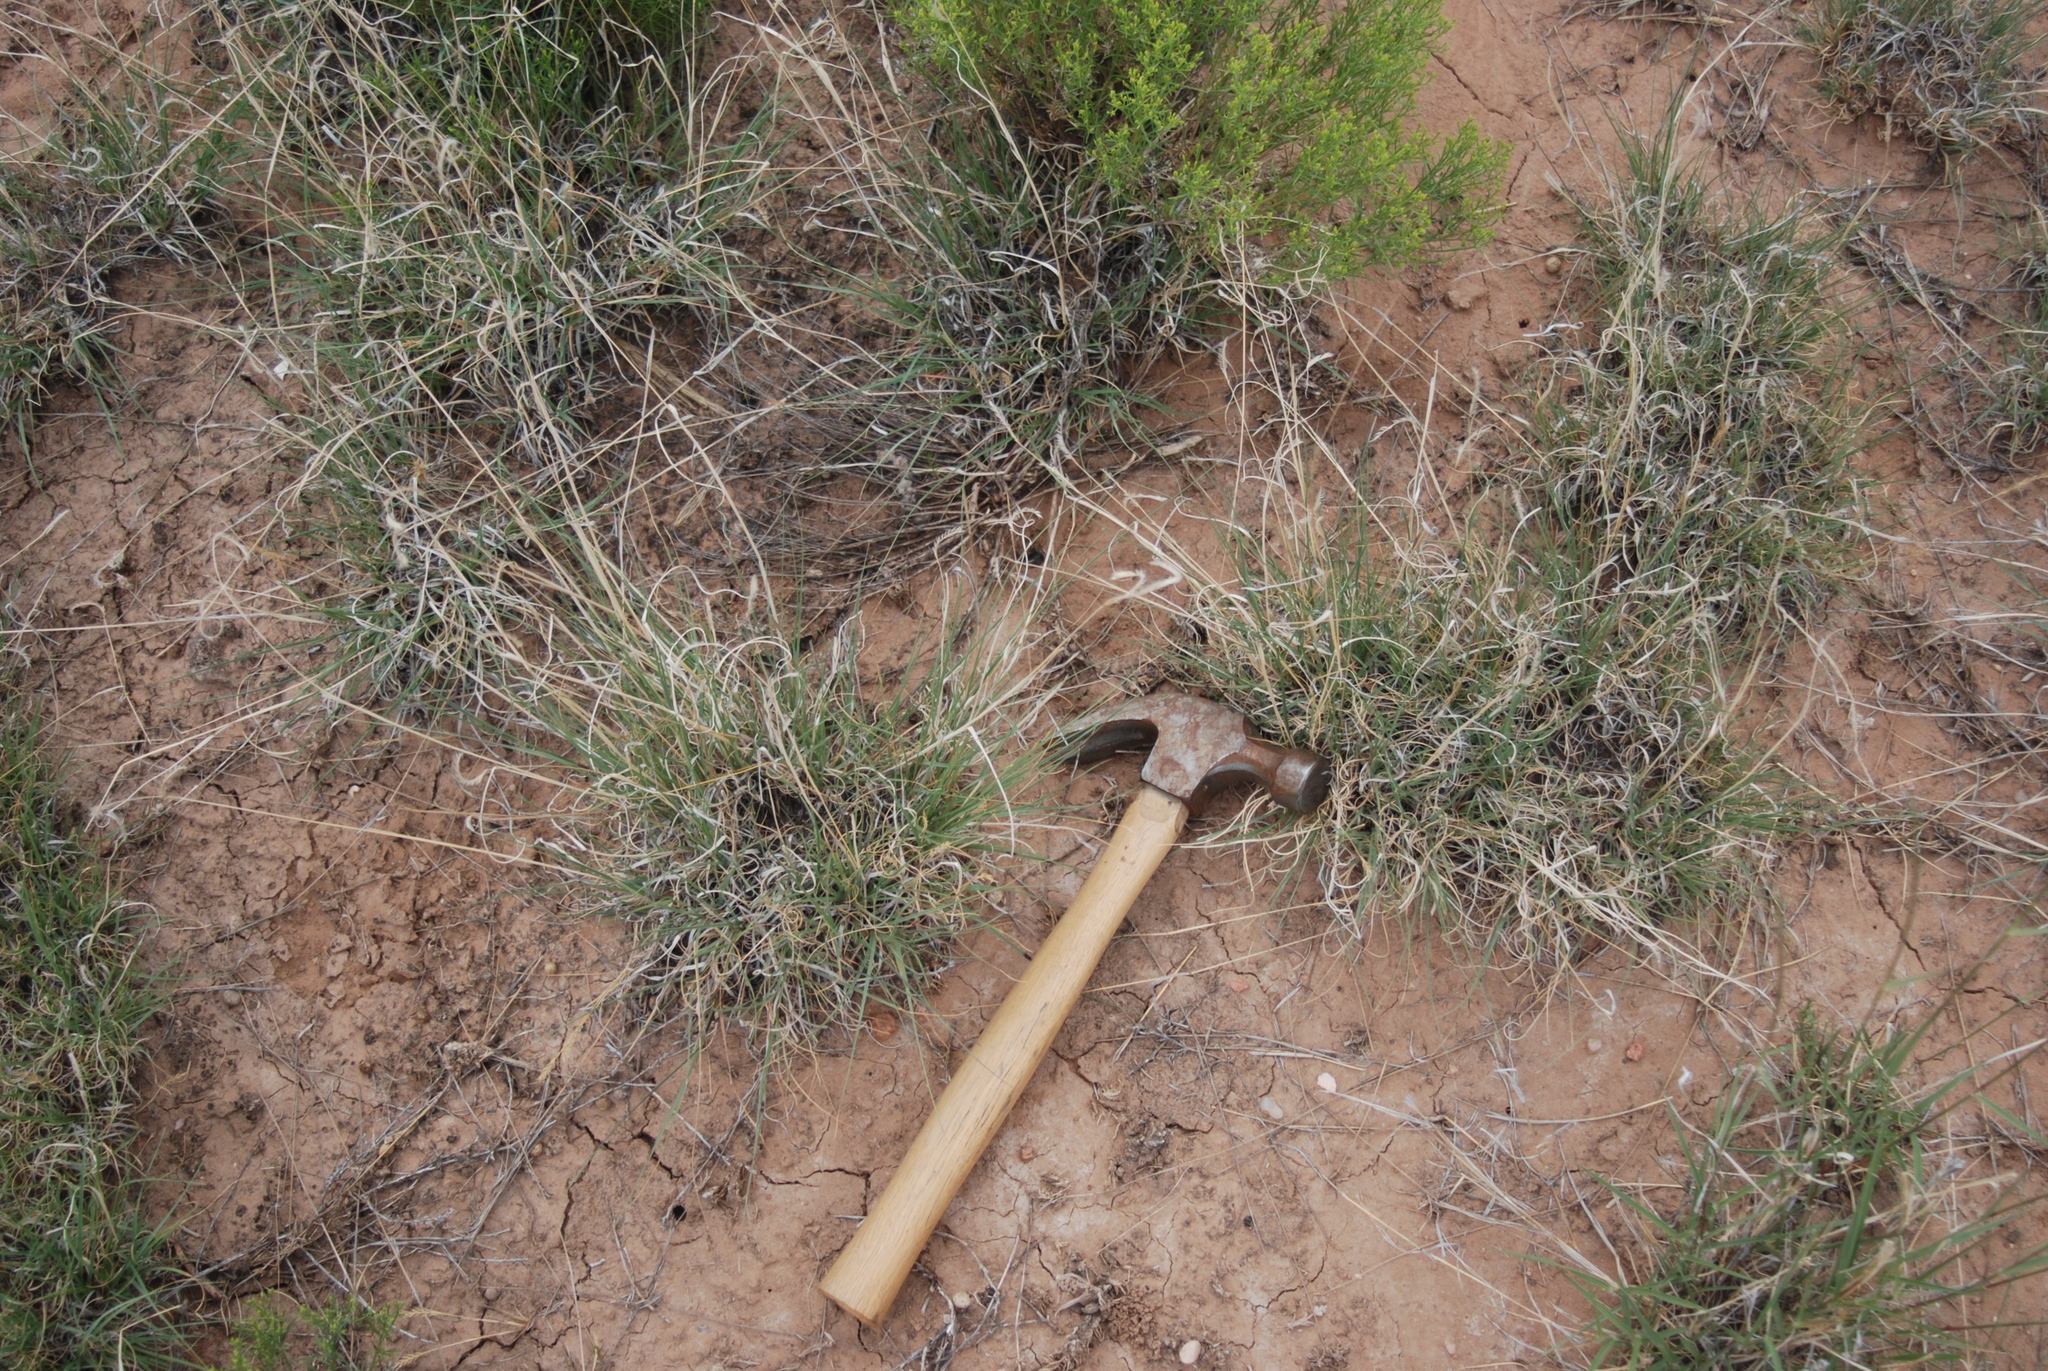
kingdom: Plantae
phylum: Tracheophyta
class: Liliopsida
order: Poales
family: Poaceae
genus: Bouteloua
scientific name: Bouteloua gracilis
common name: Blue grama
